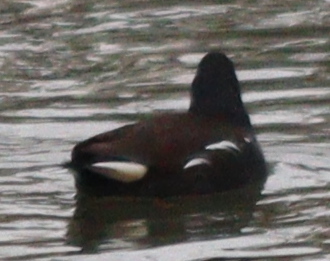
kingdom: Animalia
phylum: Chordata
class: Aves
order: Gruiformes
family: Rallidae
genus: Gallinula
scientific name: Gallinula chloropus
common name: Common moorhen
